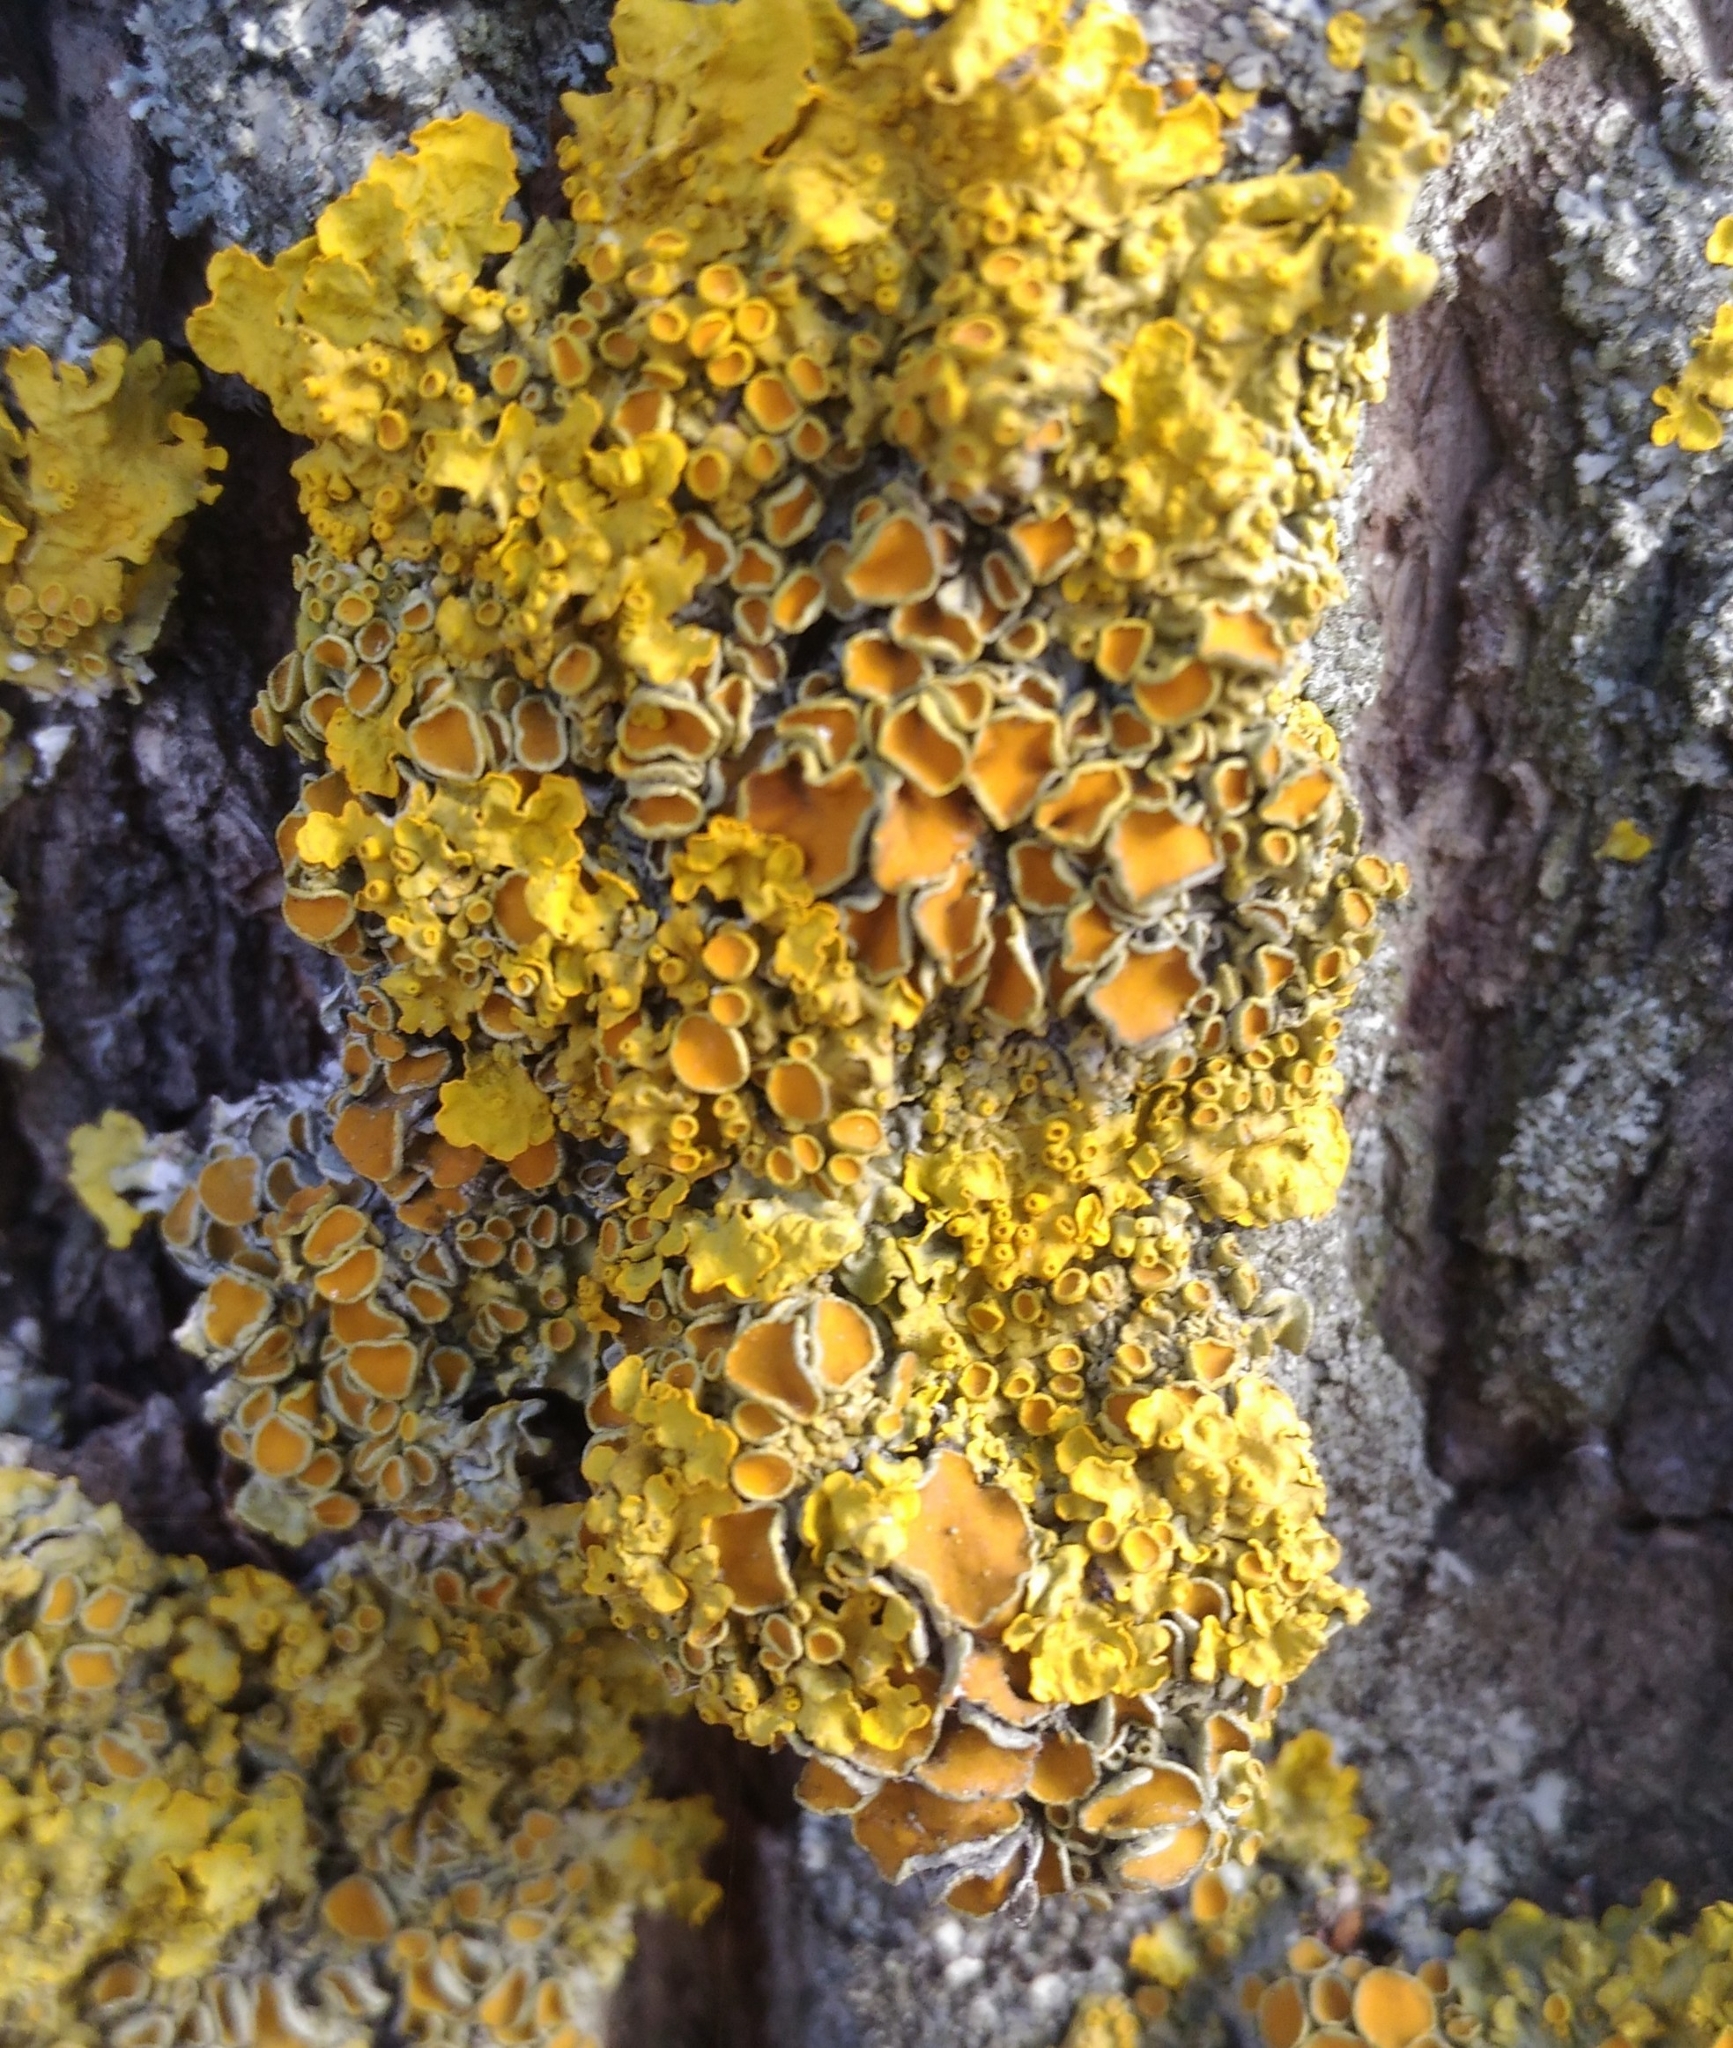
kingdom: Fungi
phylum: Ascomycota
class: Lecanoromycetes
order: Teloschistales
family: Teloschistaceae
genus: Xanthoria
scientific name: Xanthoria parietina
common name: Common orange lichen
